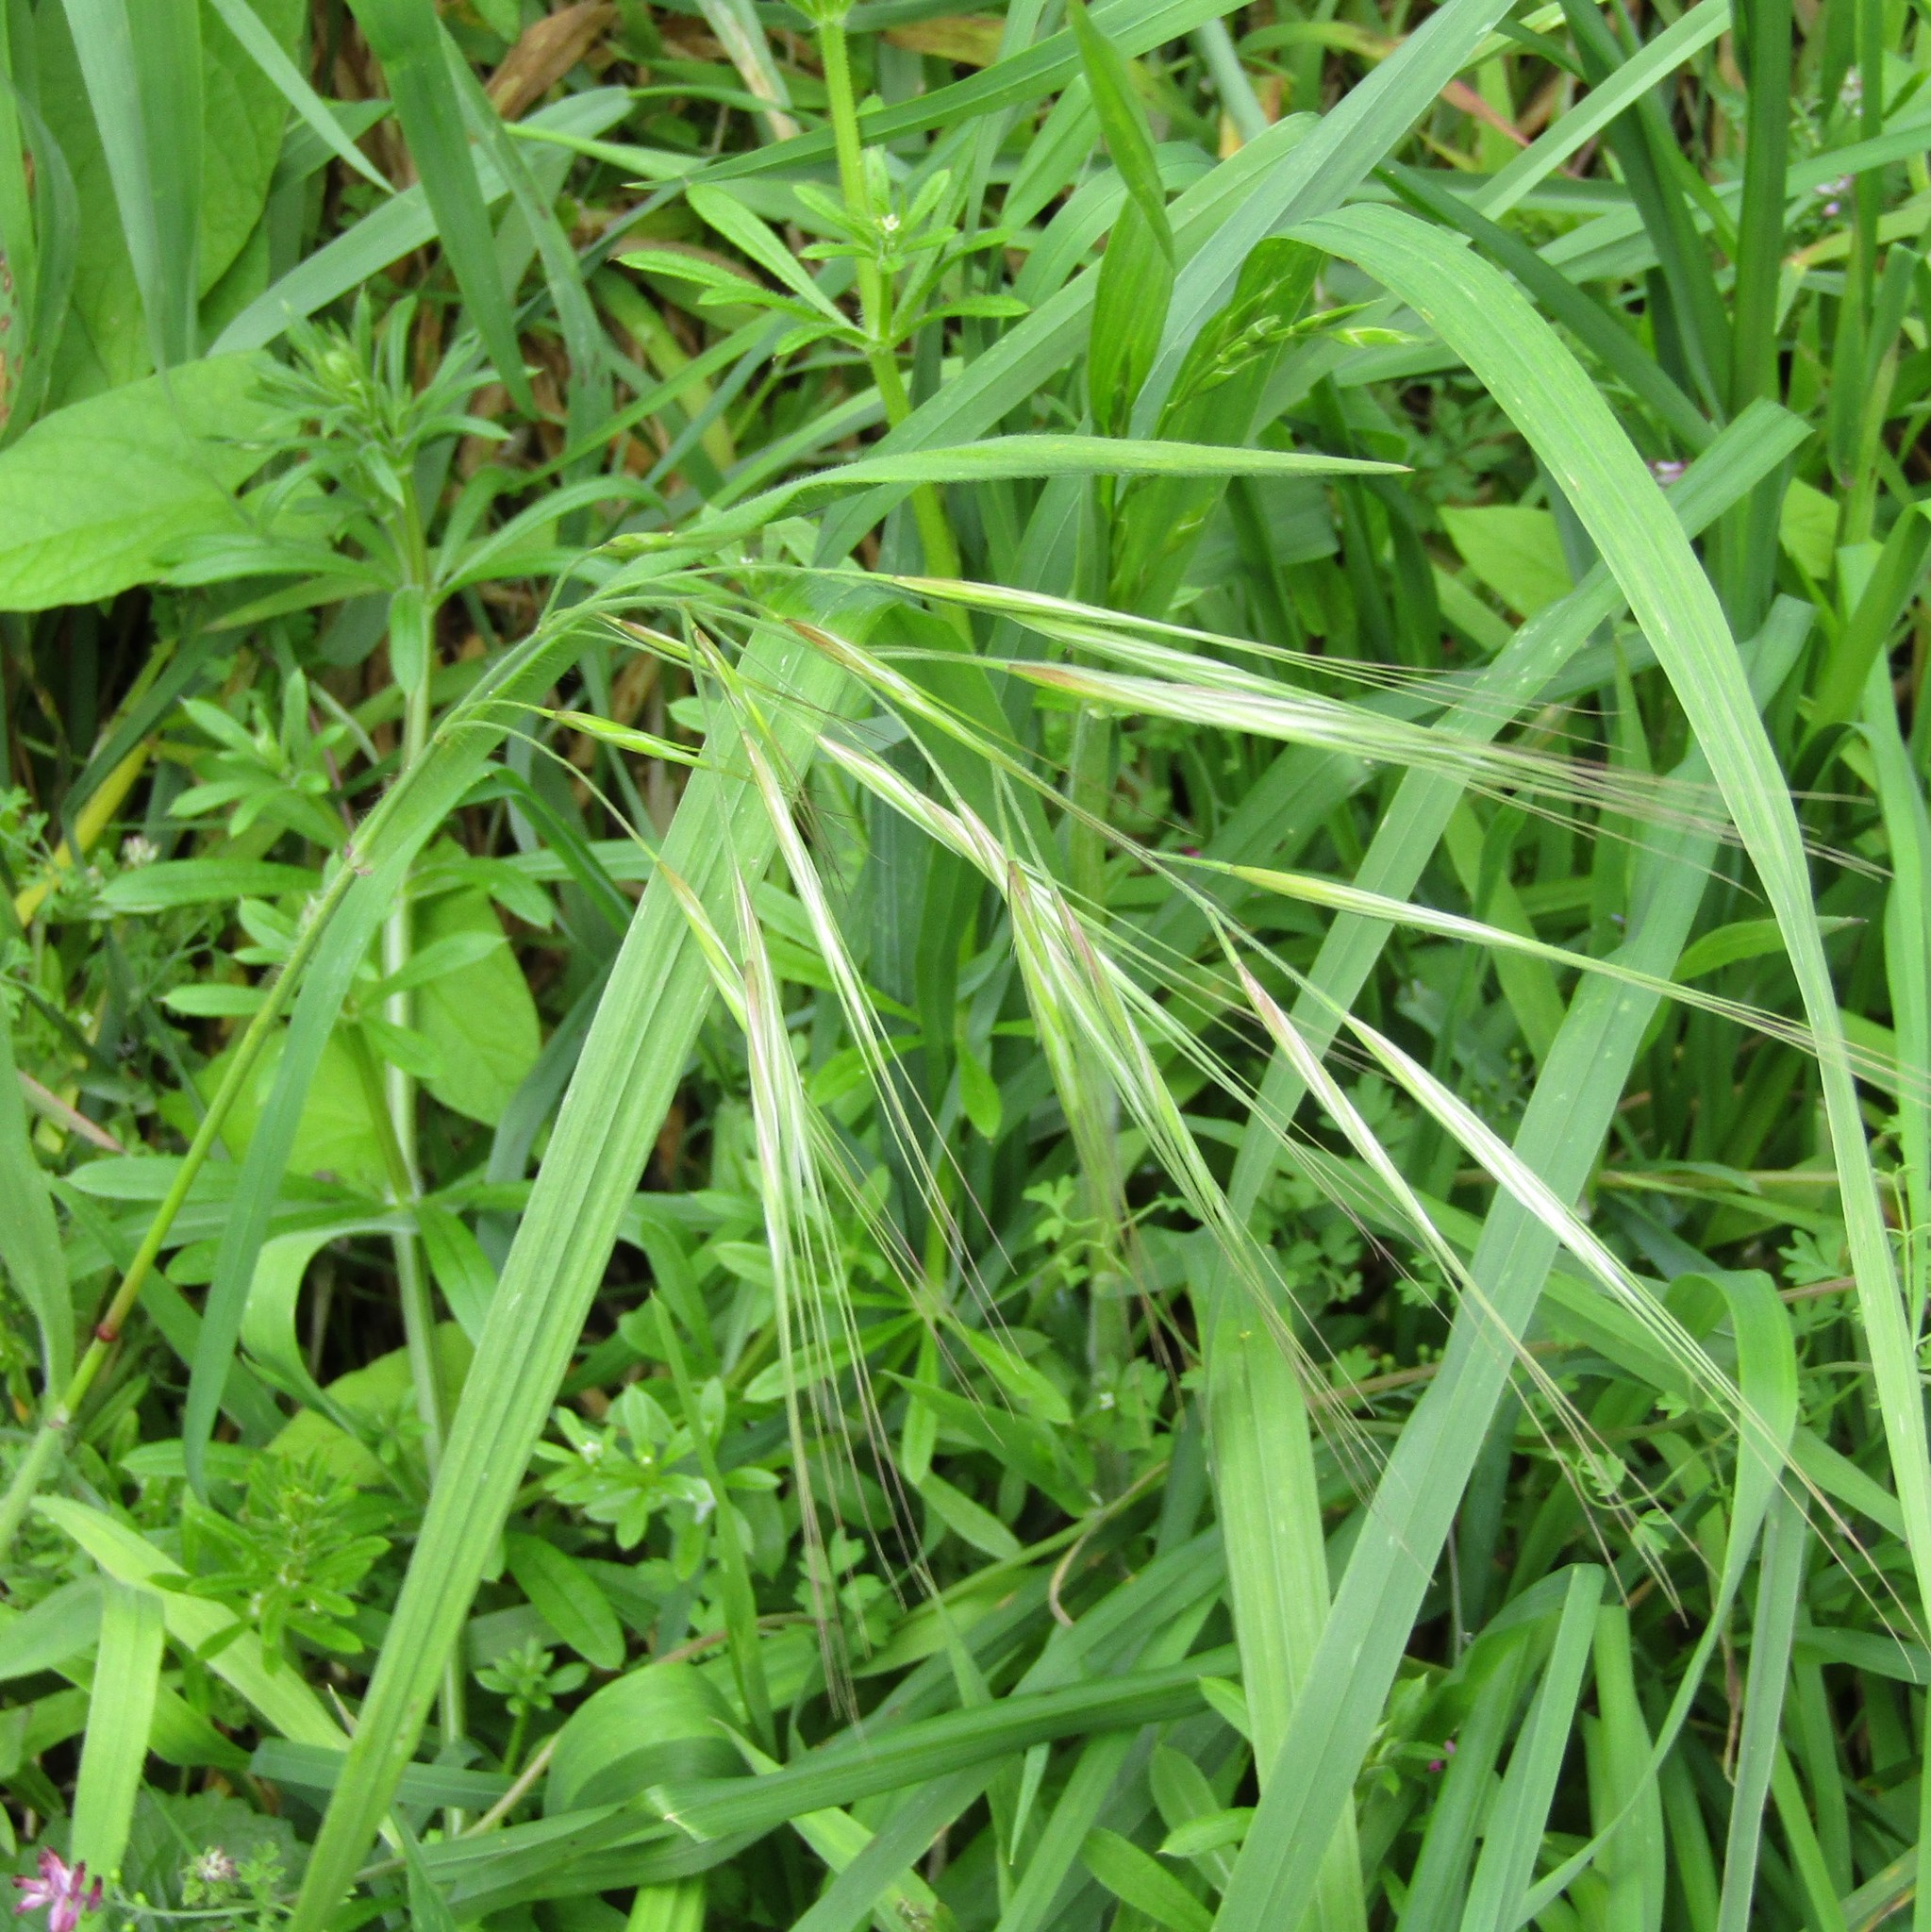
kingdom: Plantae
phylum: Tracheophyta
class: Liliopsida
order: Poales
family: Poaceae
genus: Bromus
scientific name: Bromus diandrus
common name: Ripgut brome
